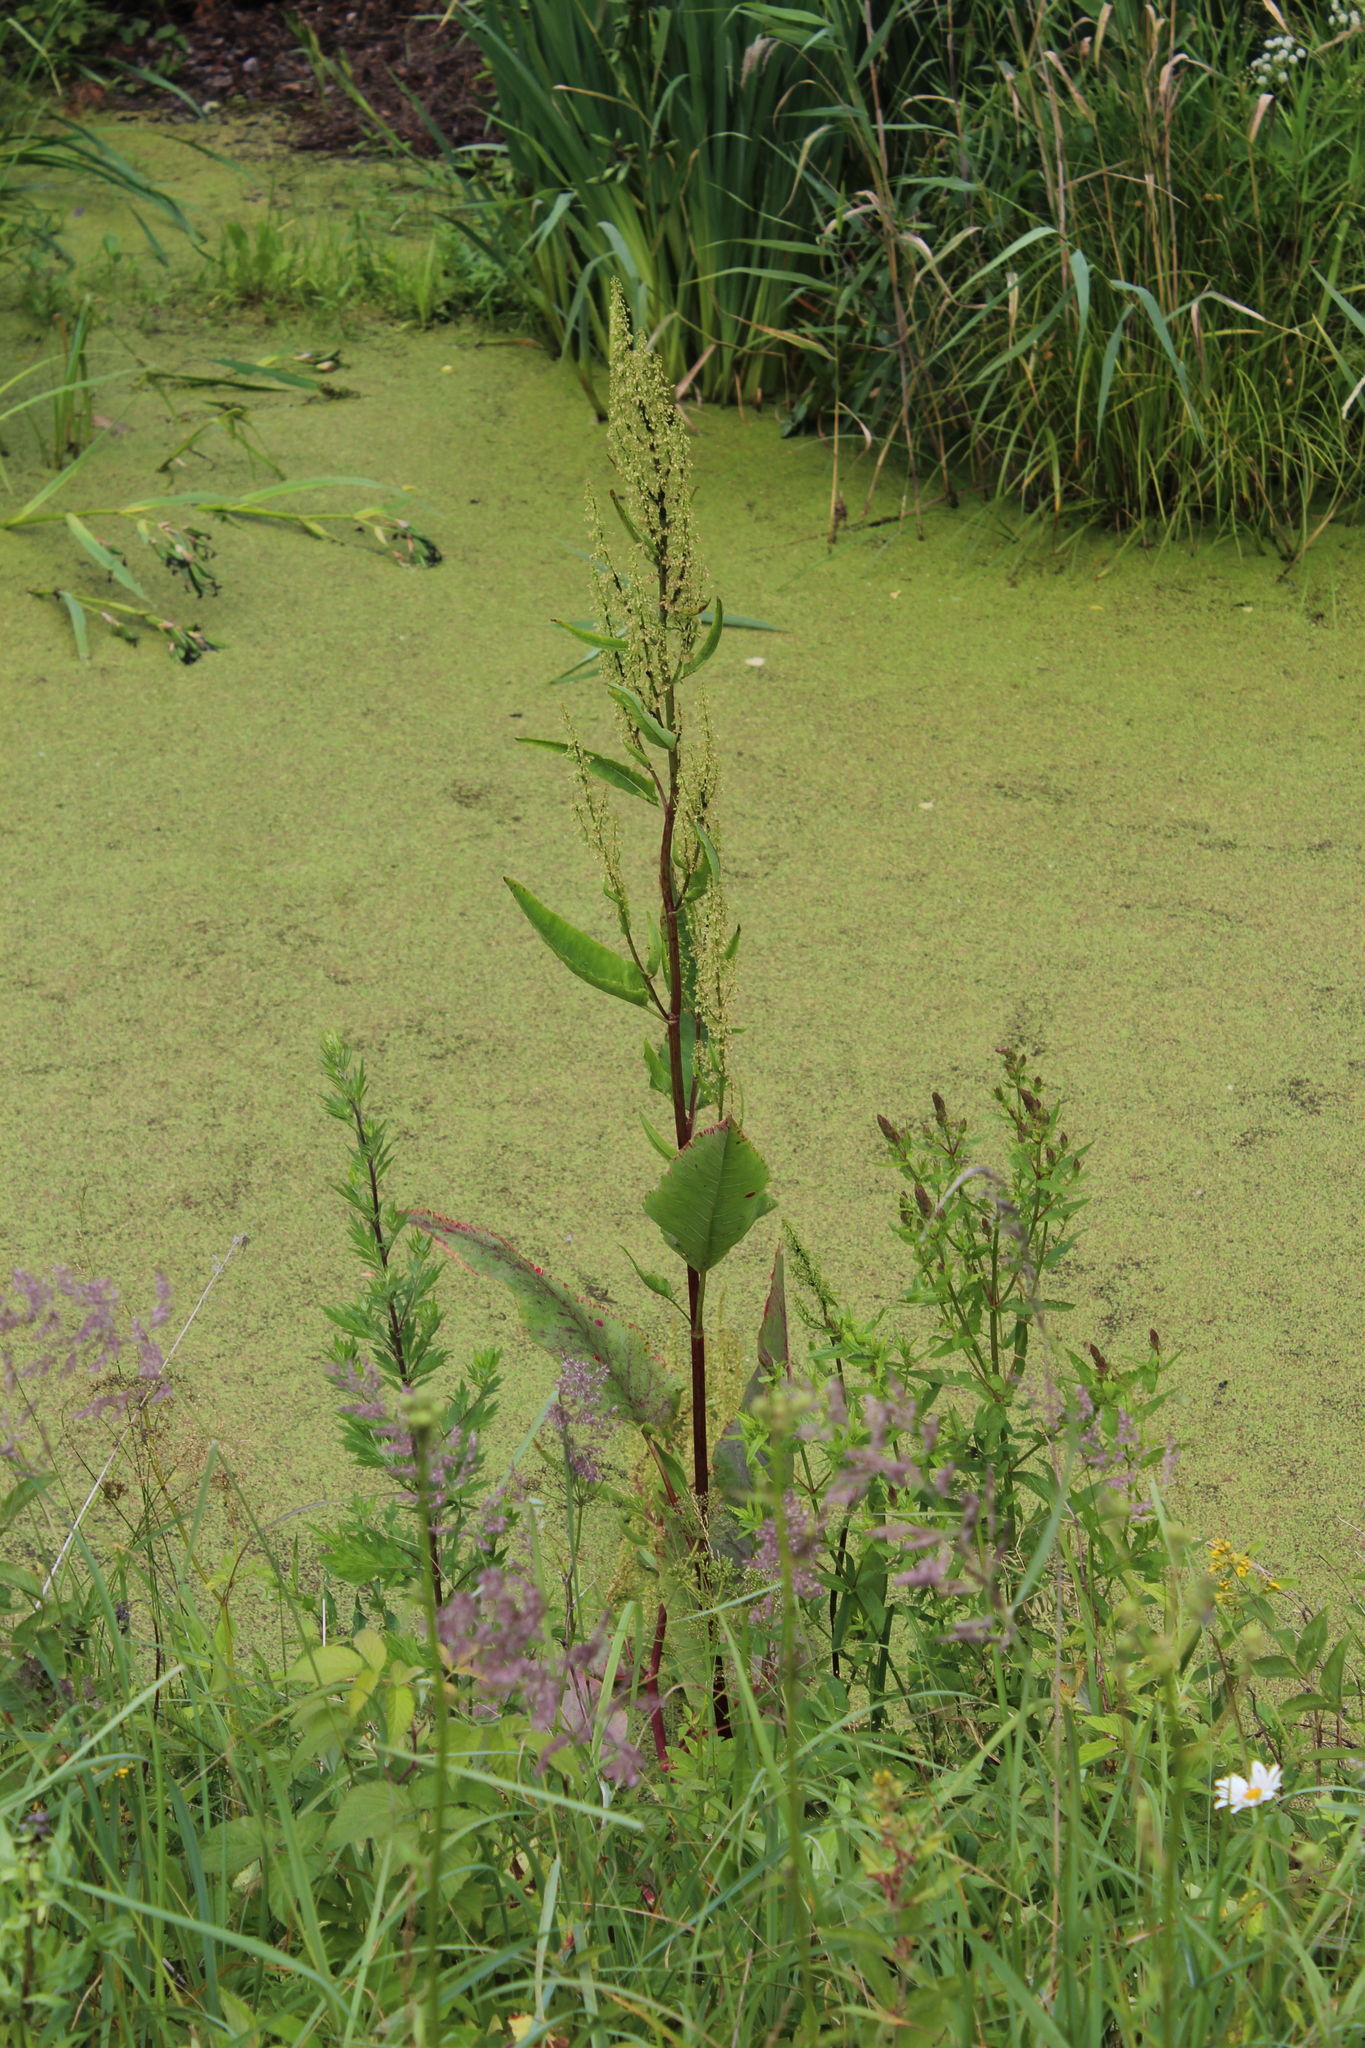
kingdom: Plantae
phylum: Tracheophyta
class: Magnoliopsida
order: Caryophyllales
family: Polygonaceae
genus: Rumex
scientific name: Rumex aquaticus
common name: Scottish dock
